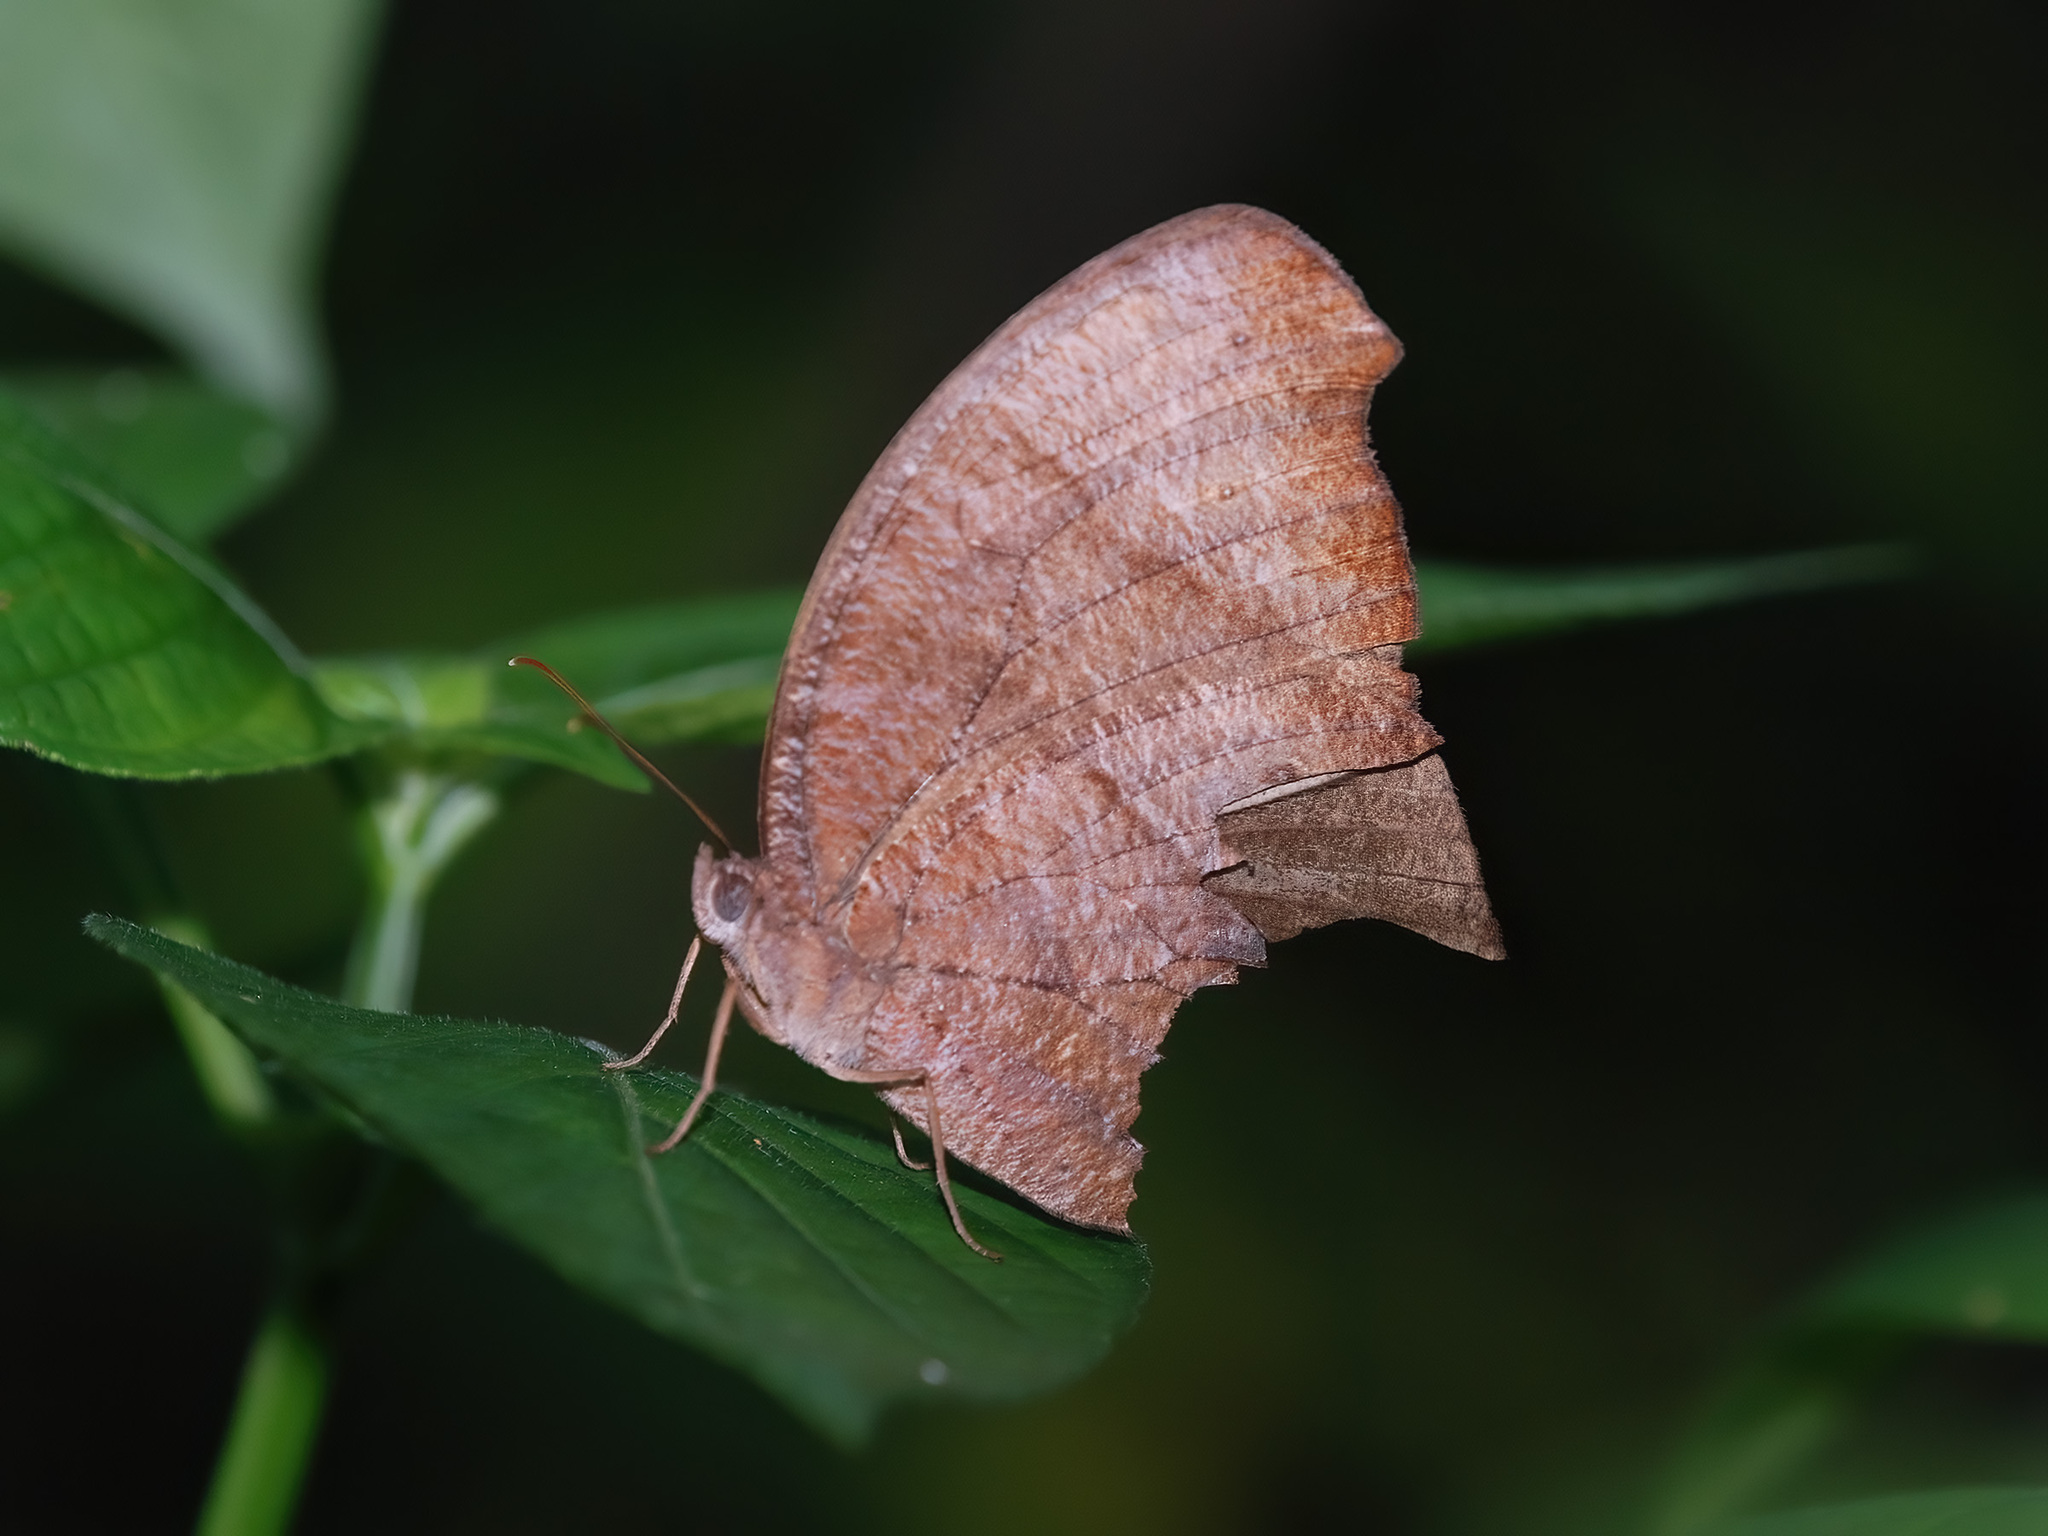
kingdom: Animalia
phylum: Arthropoda
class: Insecta
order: Lepidoptera
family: Nymphalidae
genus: Melanitis
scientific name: Melanitis phedima
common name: Dark evening brown
